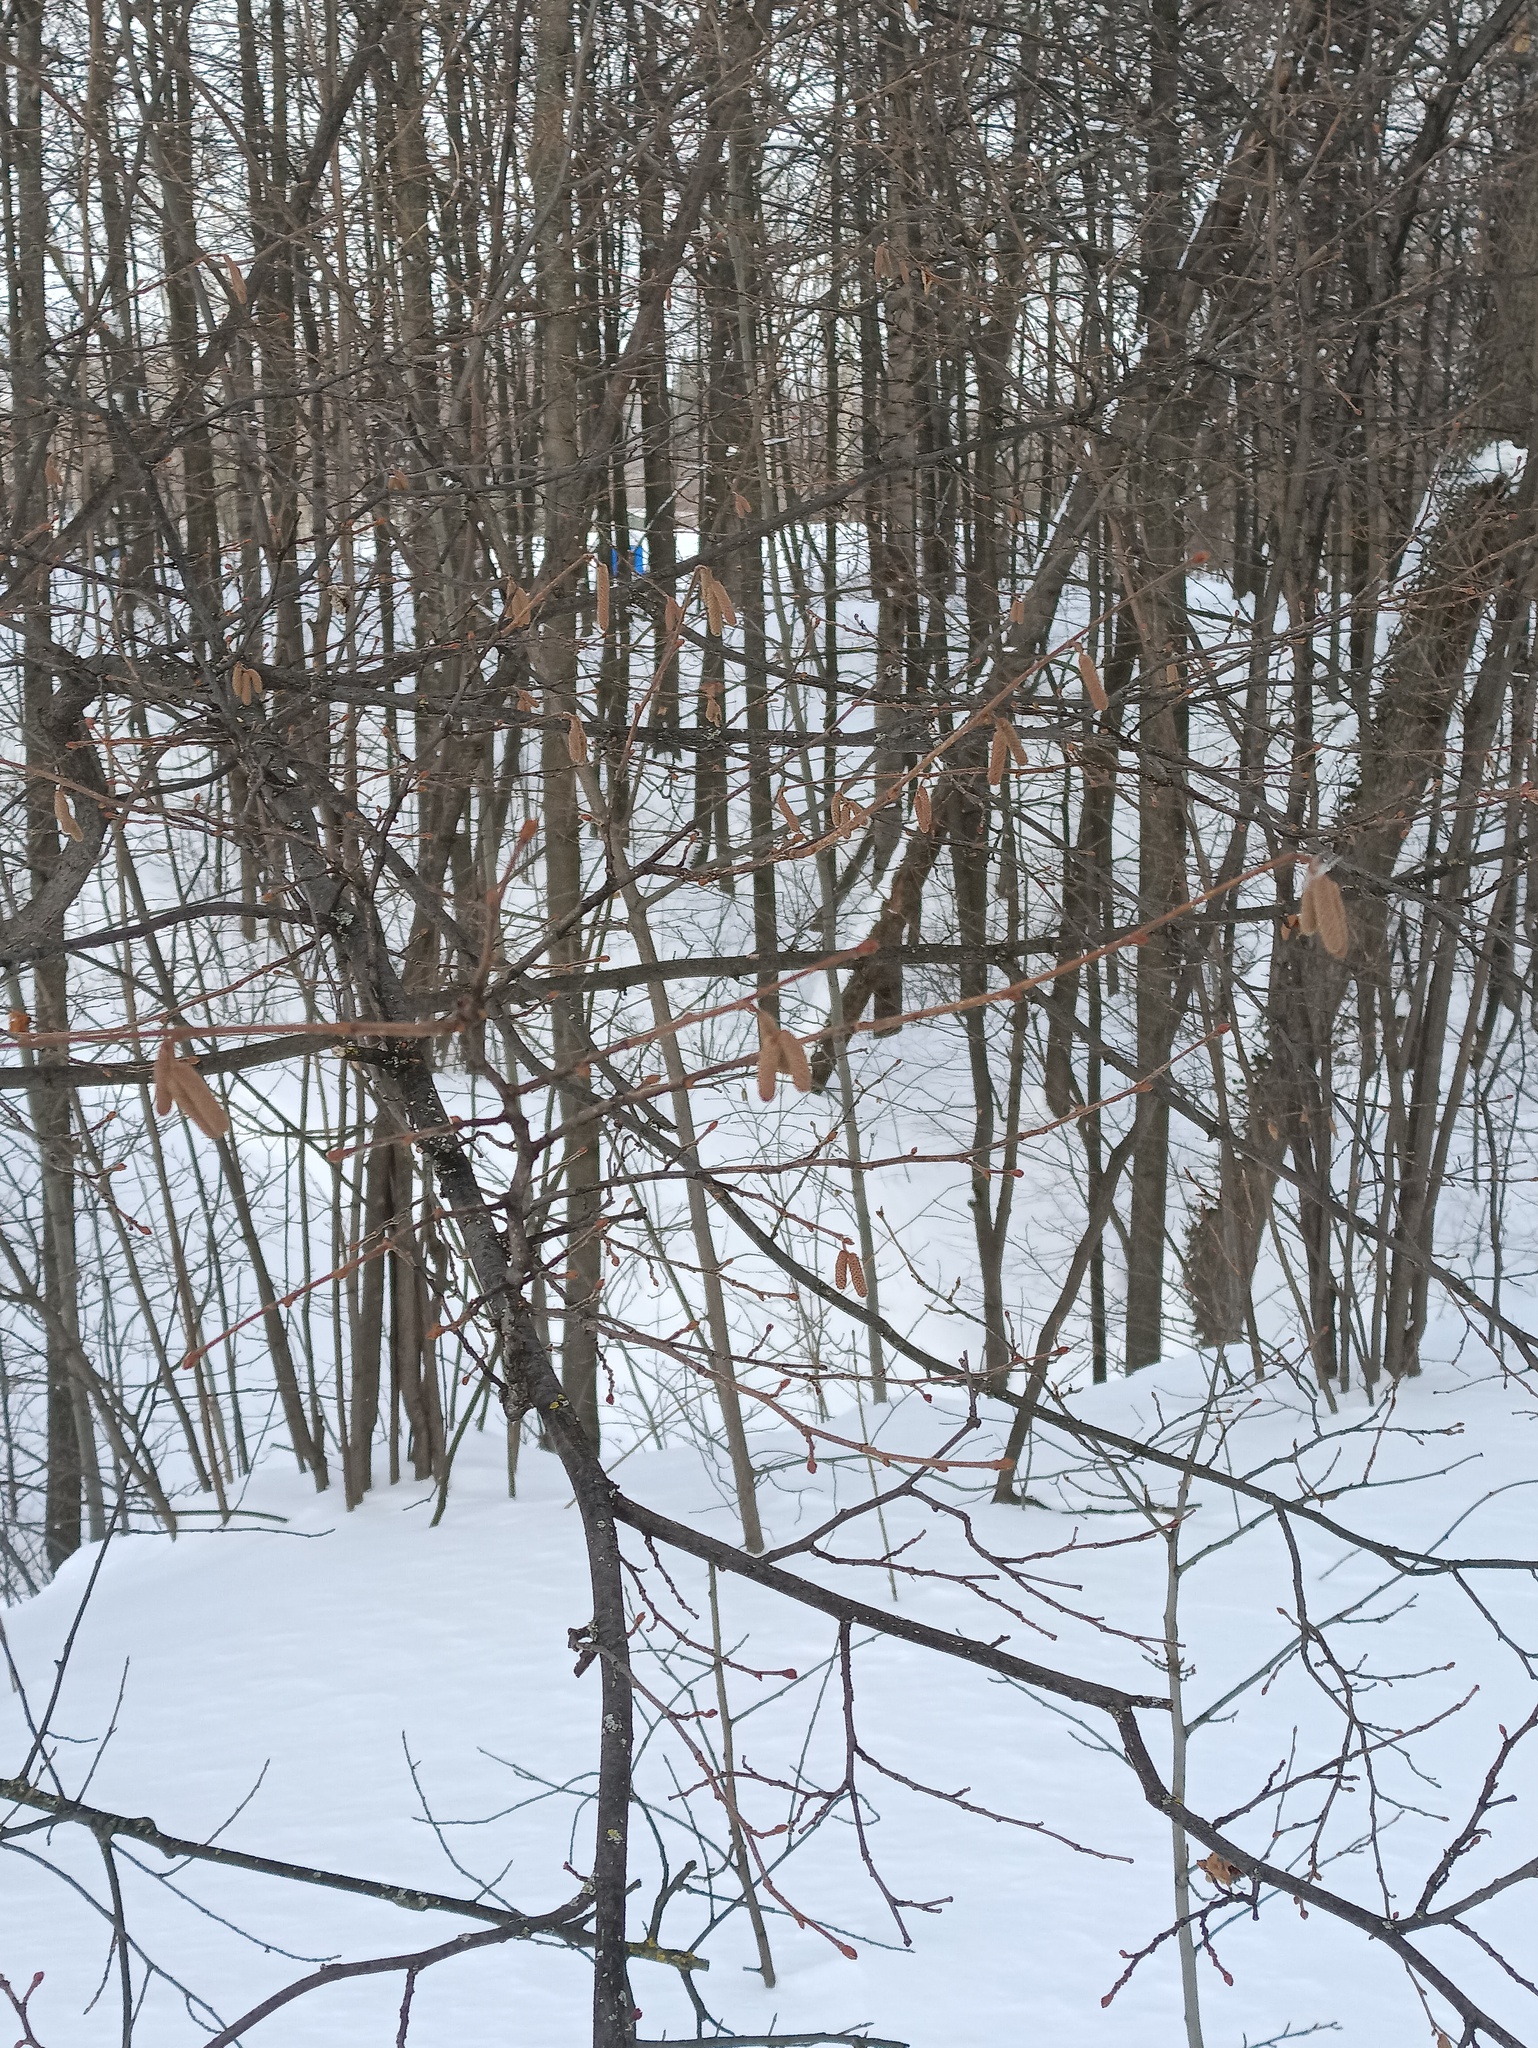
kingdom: Plantae
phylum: Tracheophyta
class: Magnoliopsida
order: Fagales
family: Betulaceae
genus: Corylus
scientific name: Corylus avellana
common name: European hazel
